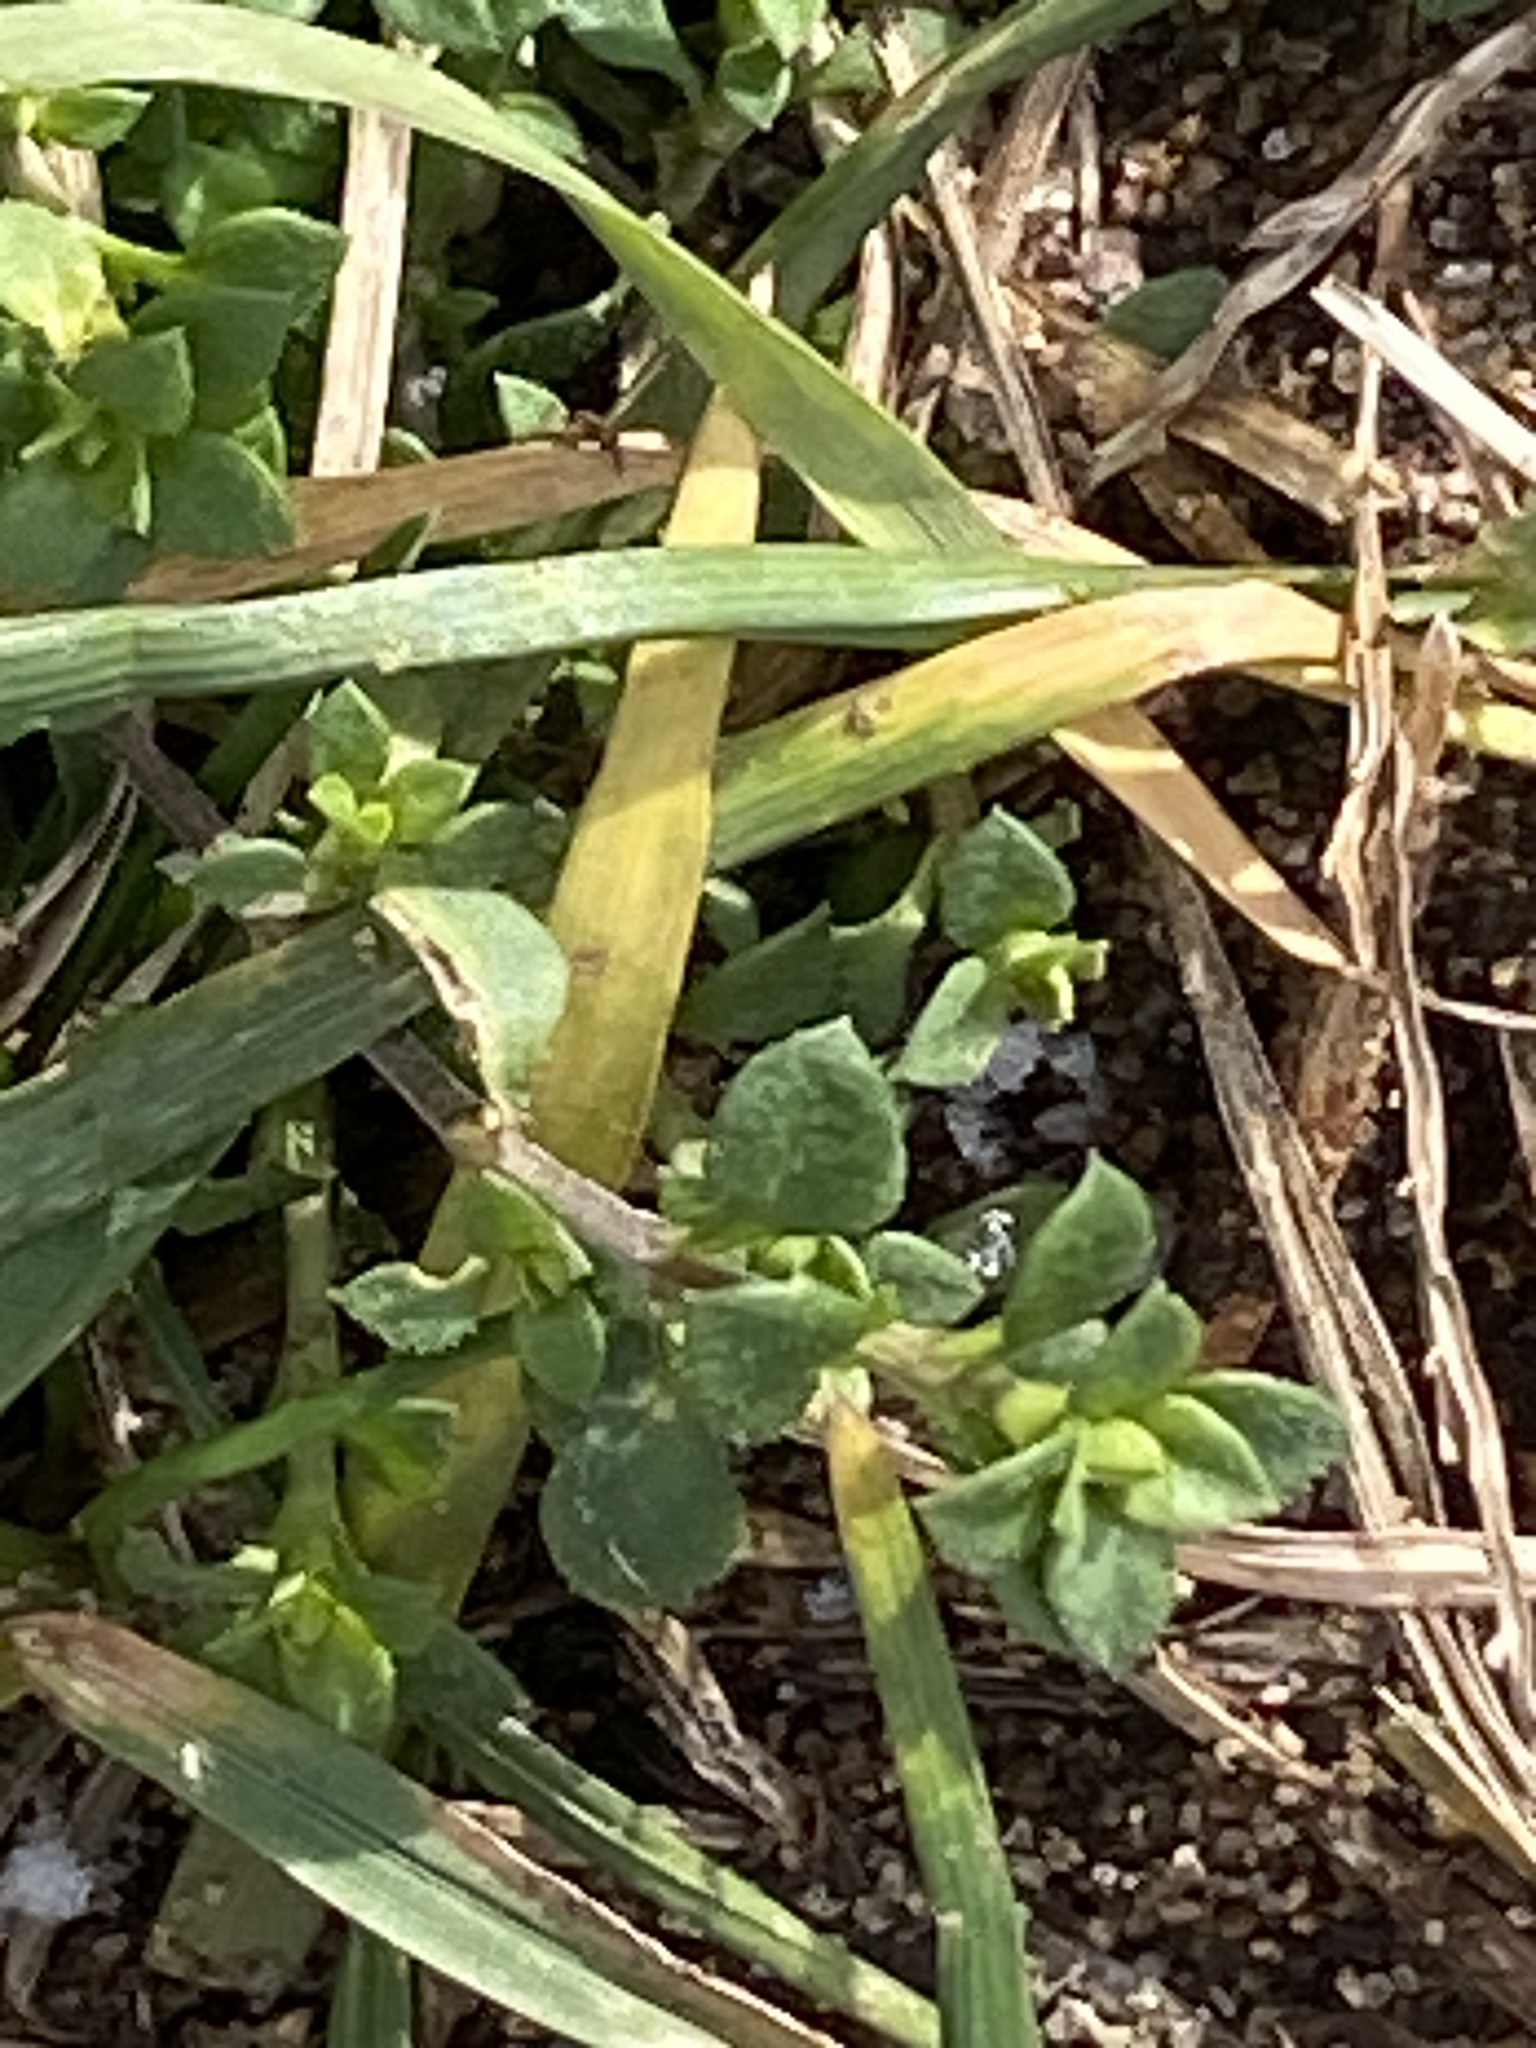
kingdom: Plantae
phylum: Tracheophyta
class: Magnoliopsida
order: Caryophyllales
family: Caryophyllaceae
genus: Stellaria
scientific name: Stellaria media
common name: Common chickweed
